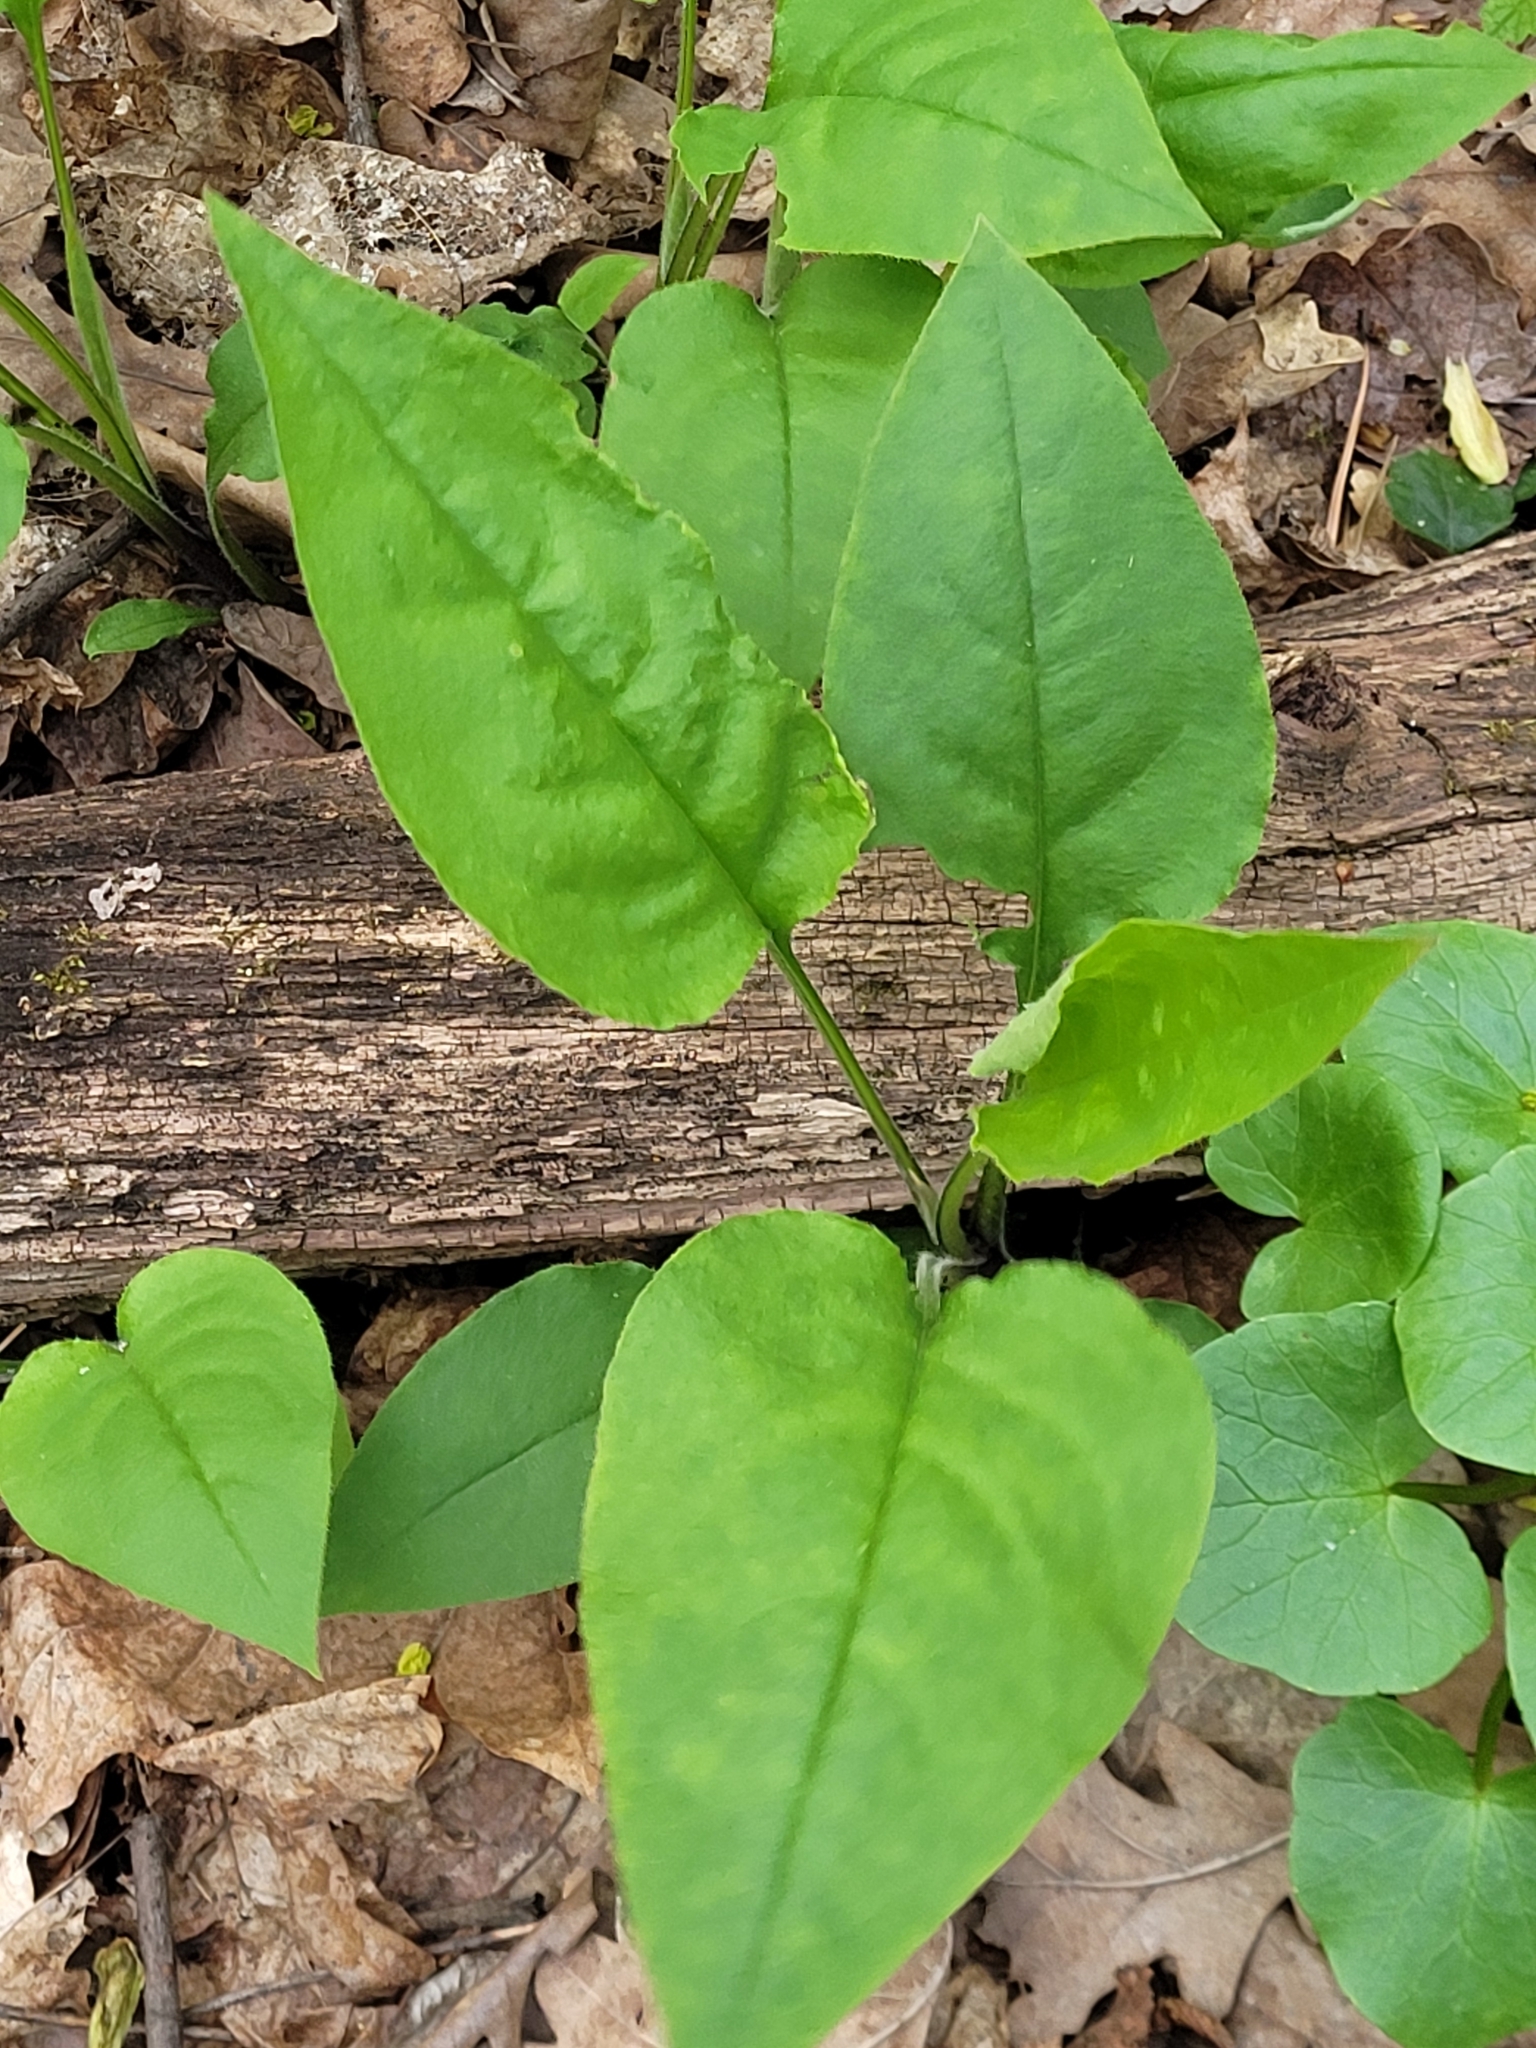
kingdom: Plantae
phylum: Tracheophyta
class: Magnoliopsida
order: Boraginales
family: Boraginaceae
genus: Pulmonaria
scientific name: Pulmonaria obscura
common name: Suffolk lungwort
